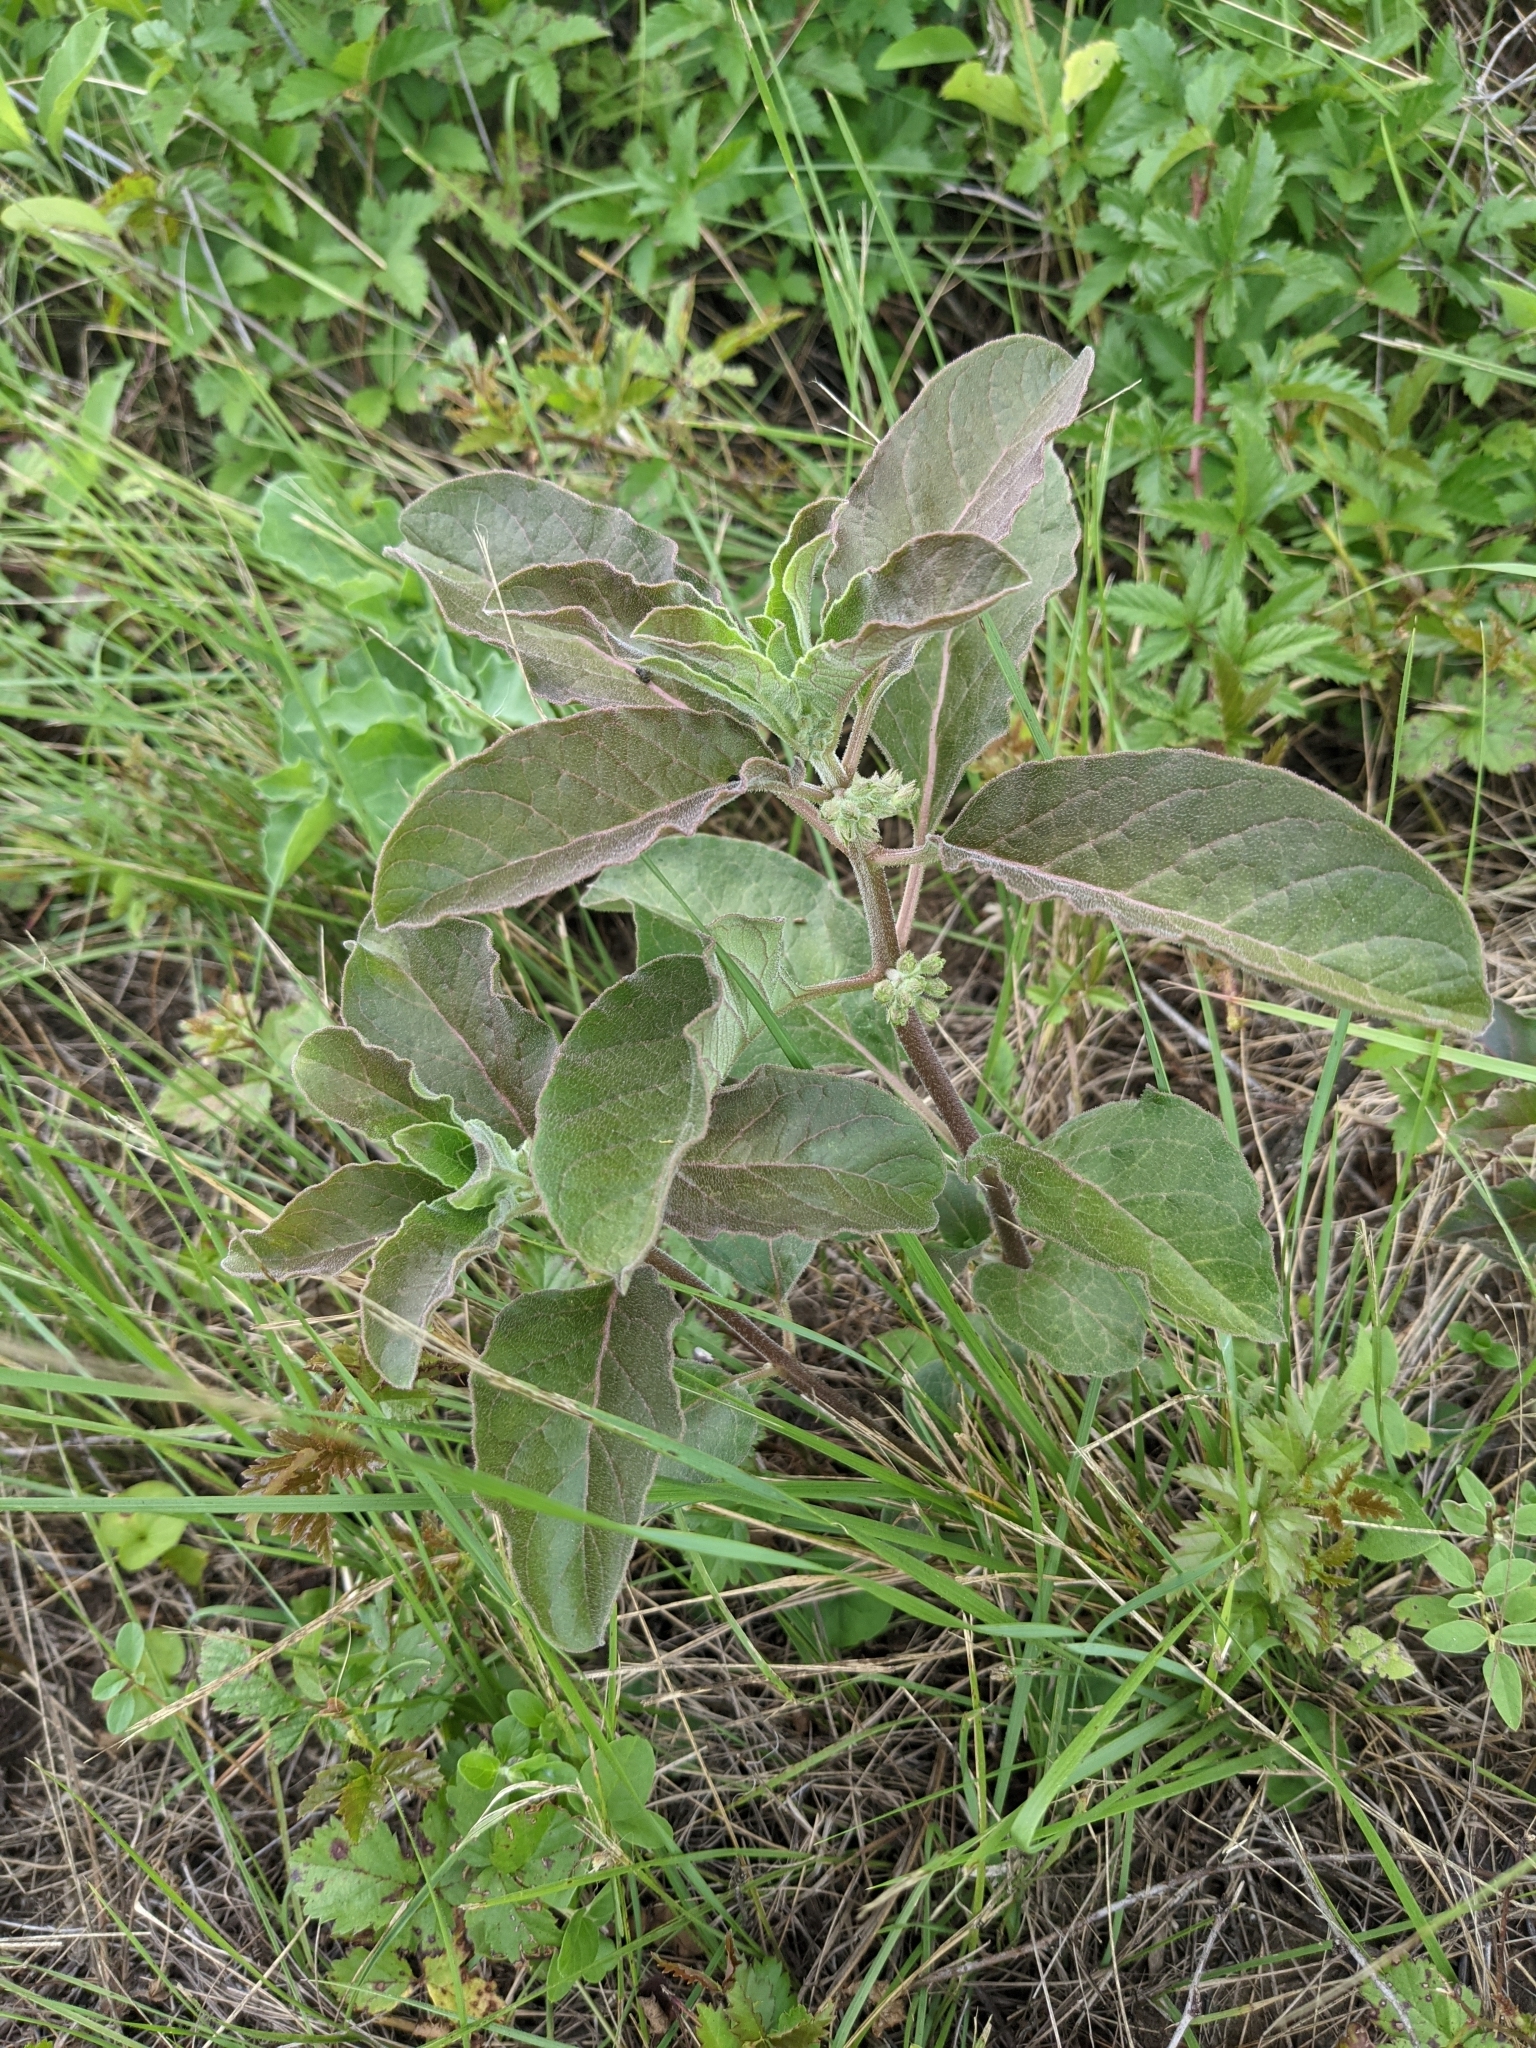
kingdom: Plantae
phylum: Tracheophyta
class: Magnoliopsida
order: Gentianales
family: Apocynaceae
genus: Asclepias
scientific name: Asclepias oenotheroides
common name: Zizotes milkweed
